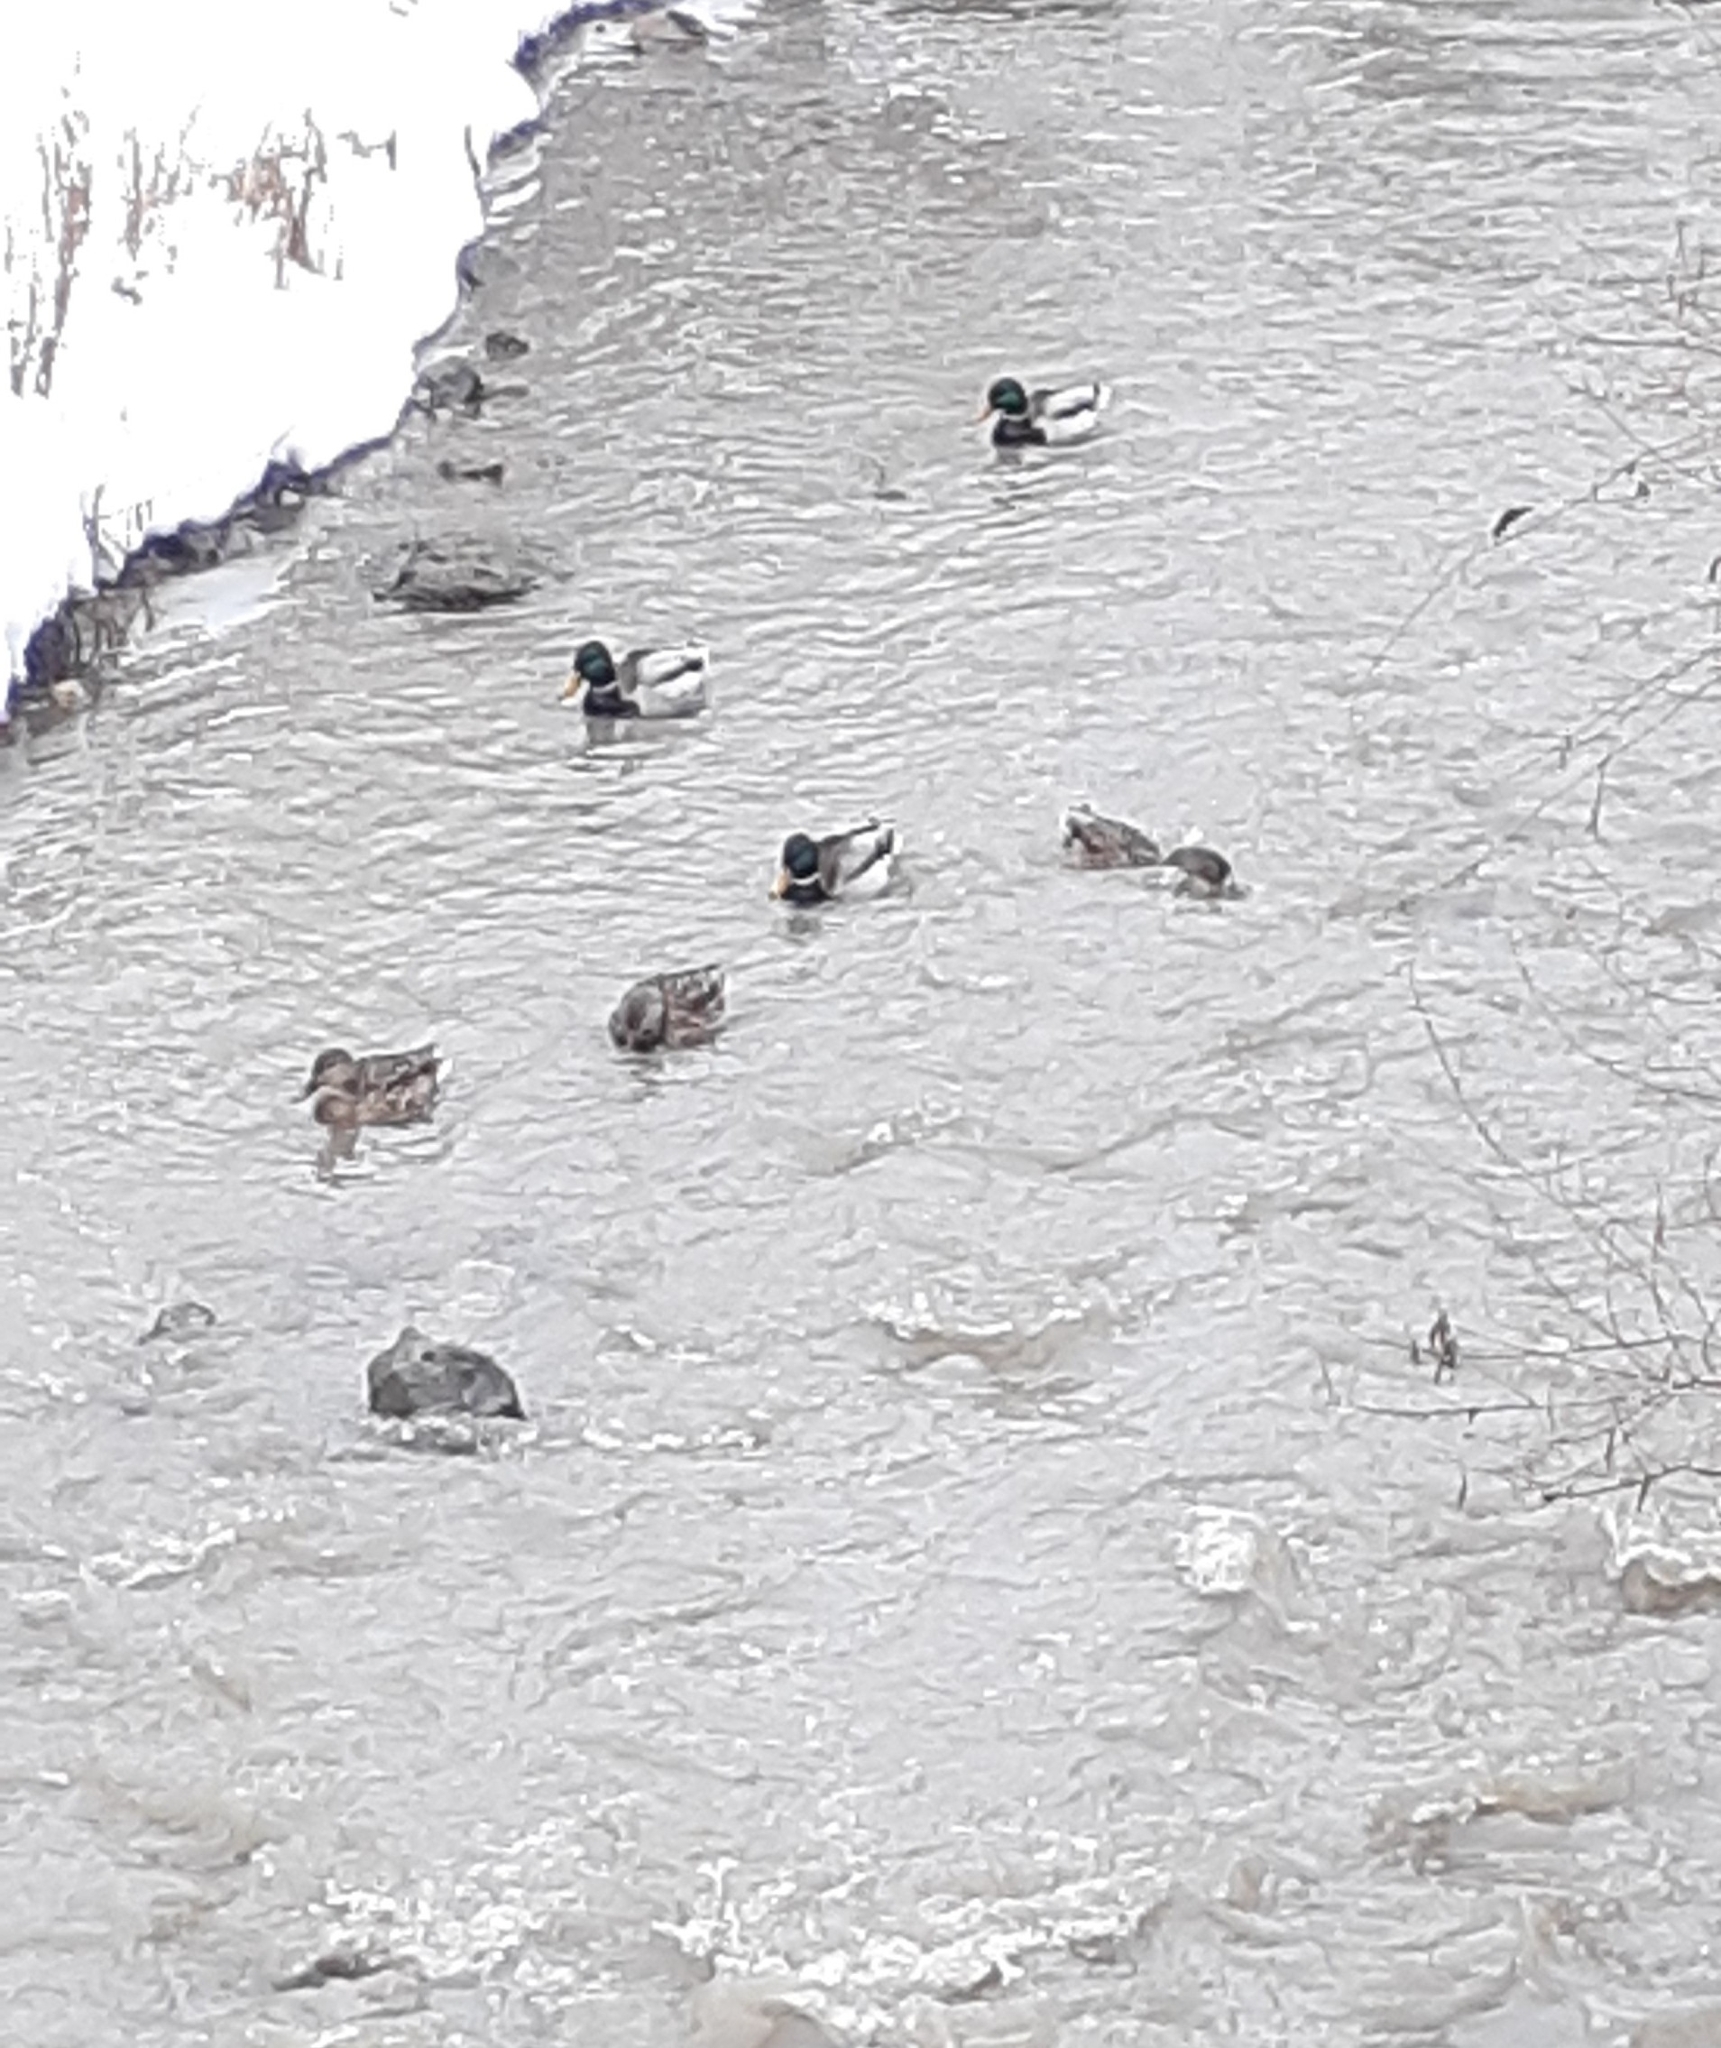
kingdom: Animalia
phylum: Chordata
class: Aves
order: Anseriformes
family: Anatidae
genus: Anas
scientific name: Anas platyrhynchos
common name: Mallard
